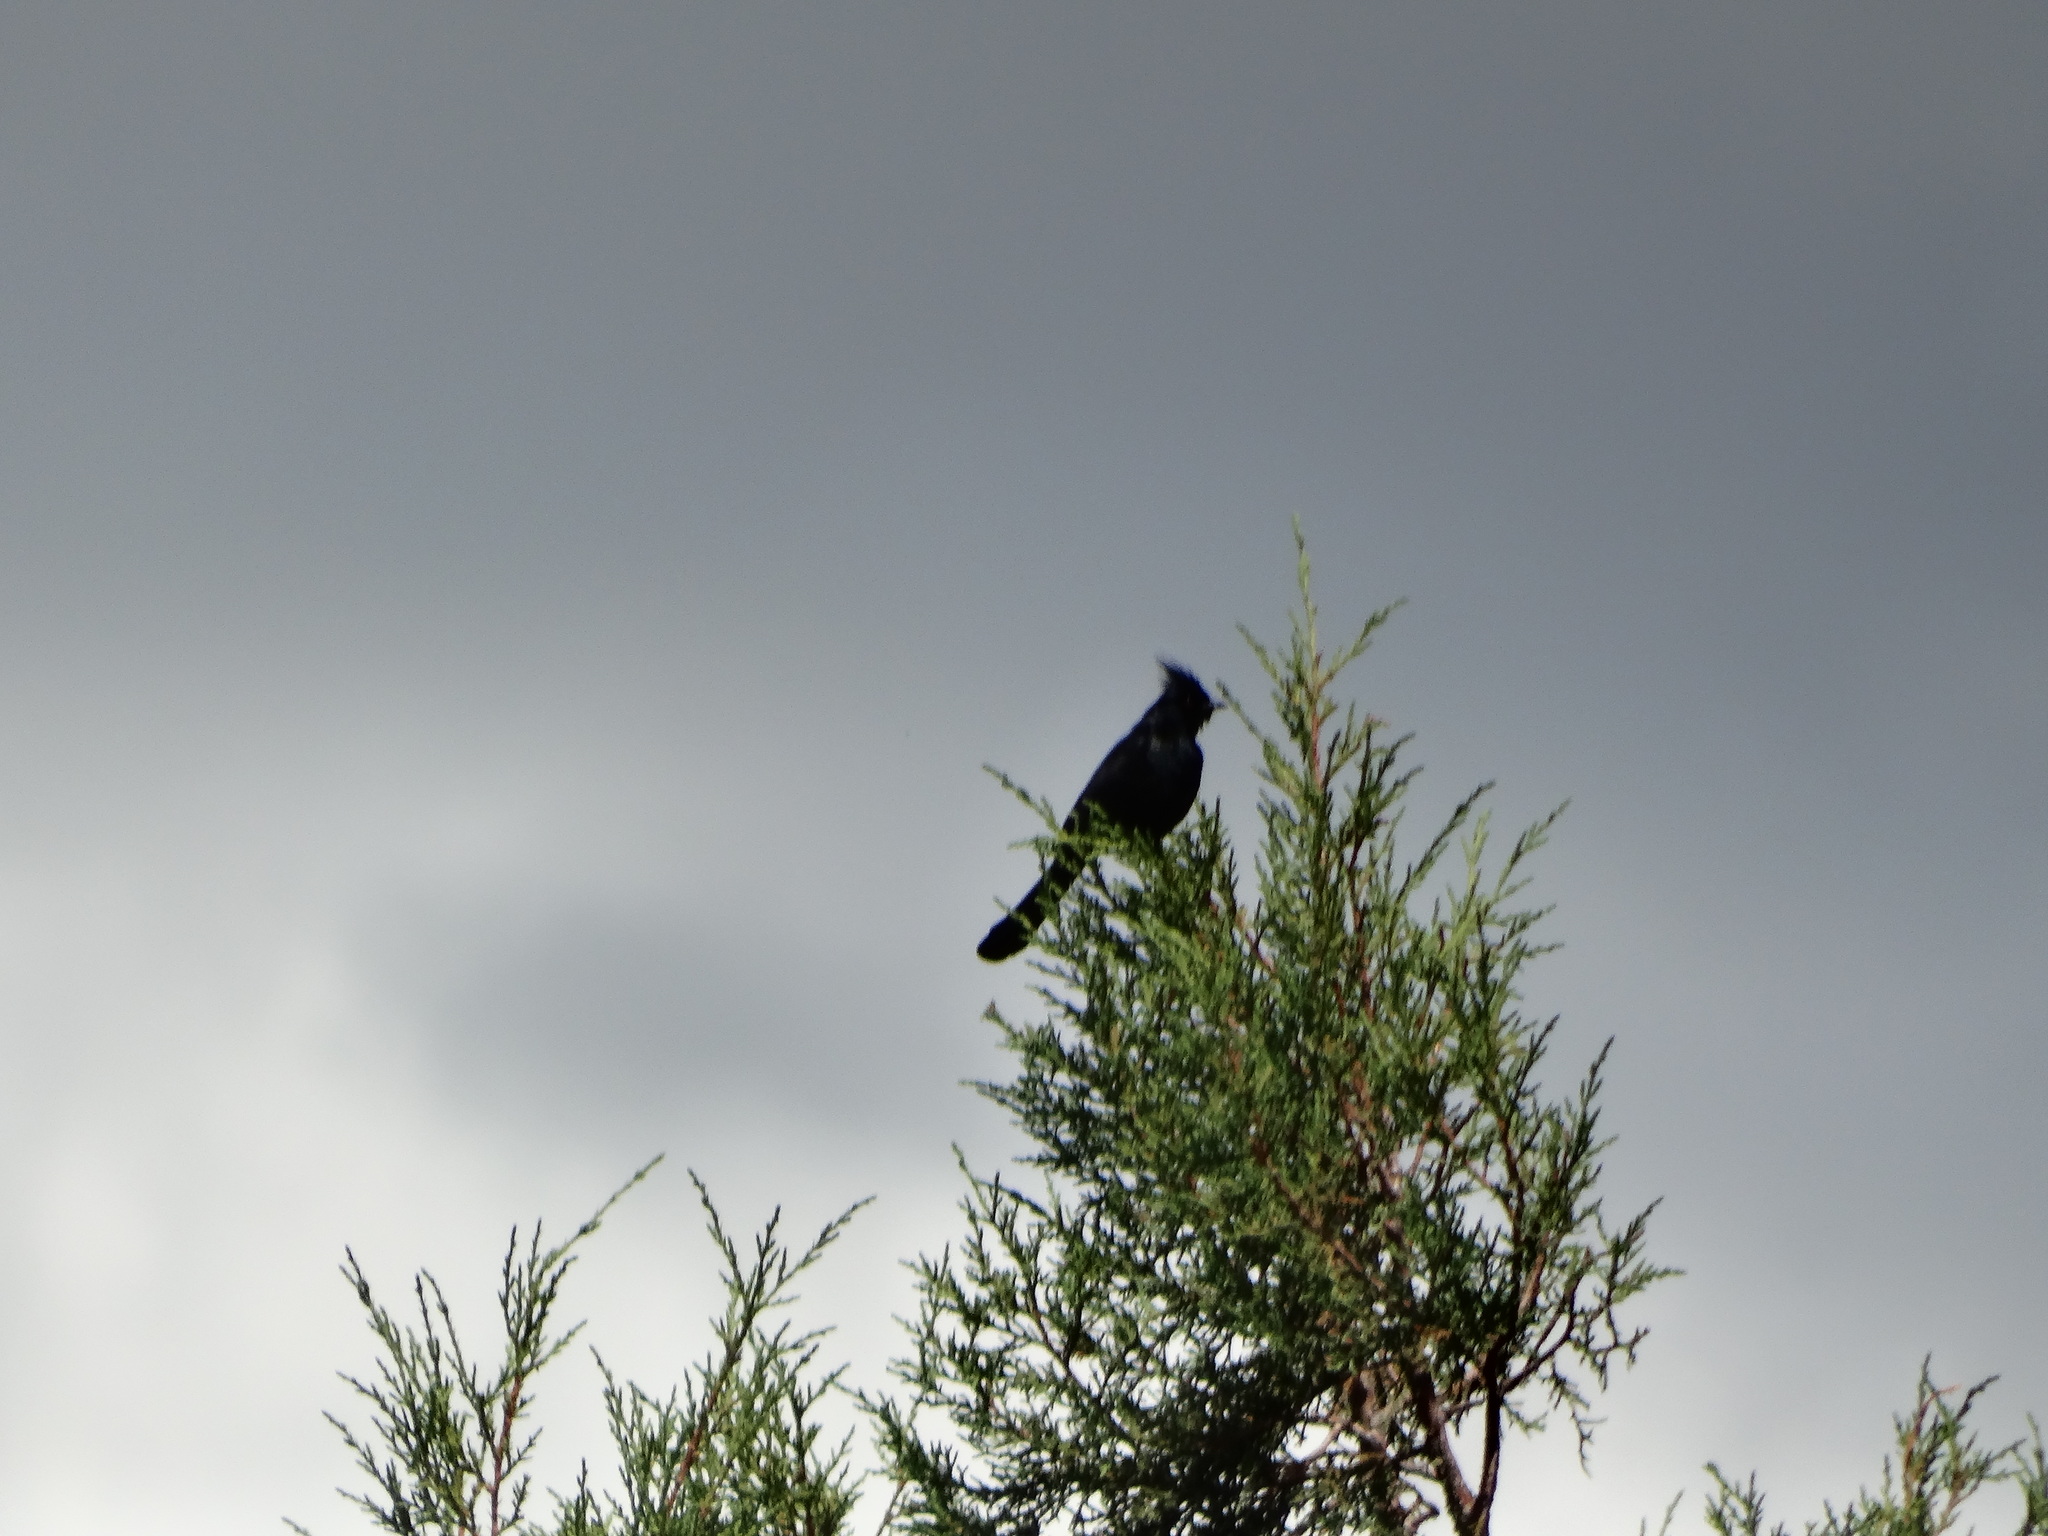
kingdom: Animalia
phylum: Chordata
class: Aves
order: Passeriformes
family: Ptilogonatidae
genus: Phainopepla
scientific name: Phainopepla nitens
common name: Phainopepla
